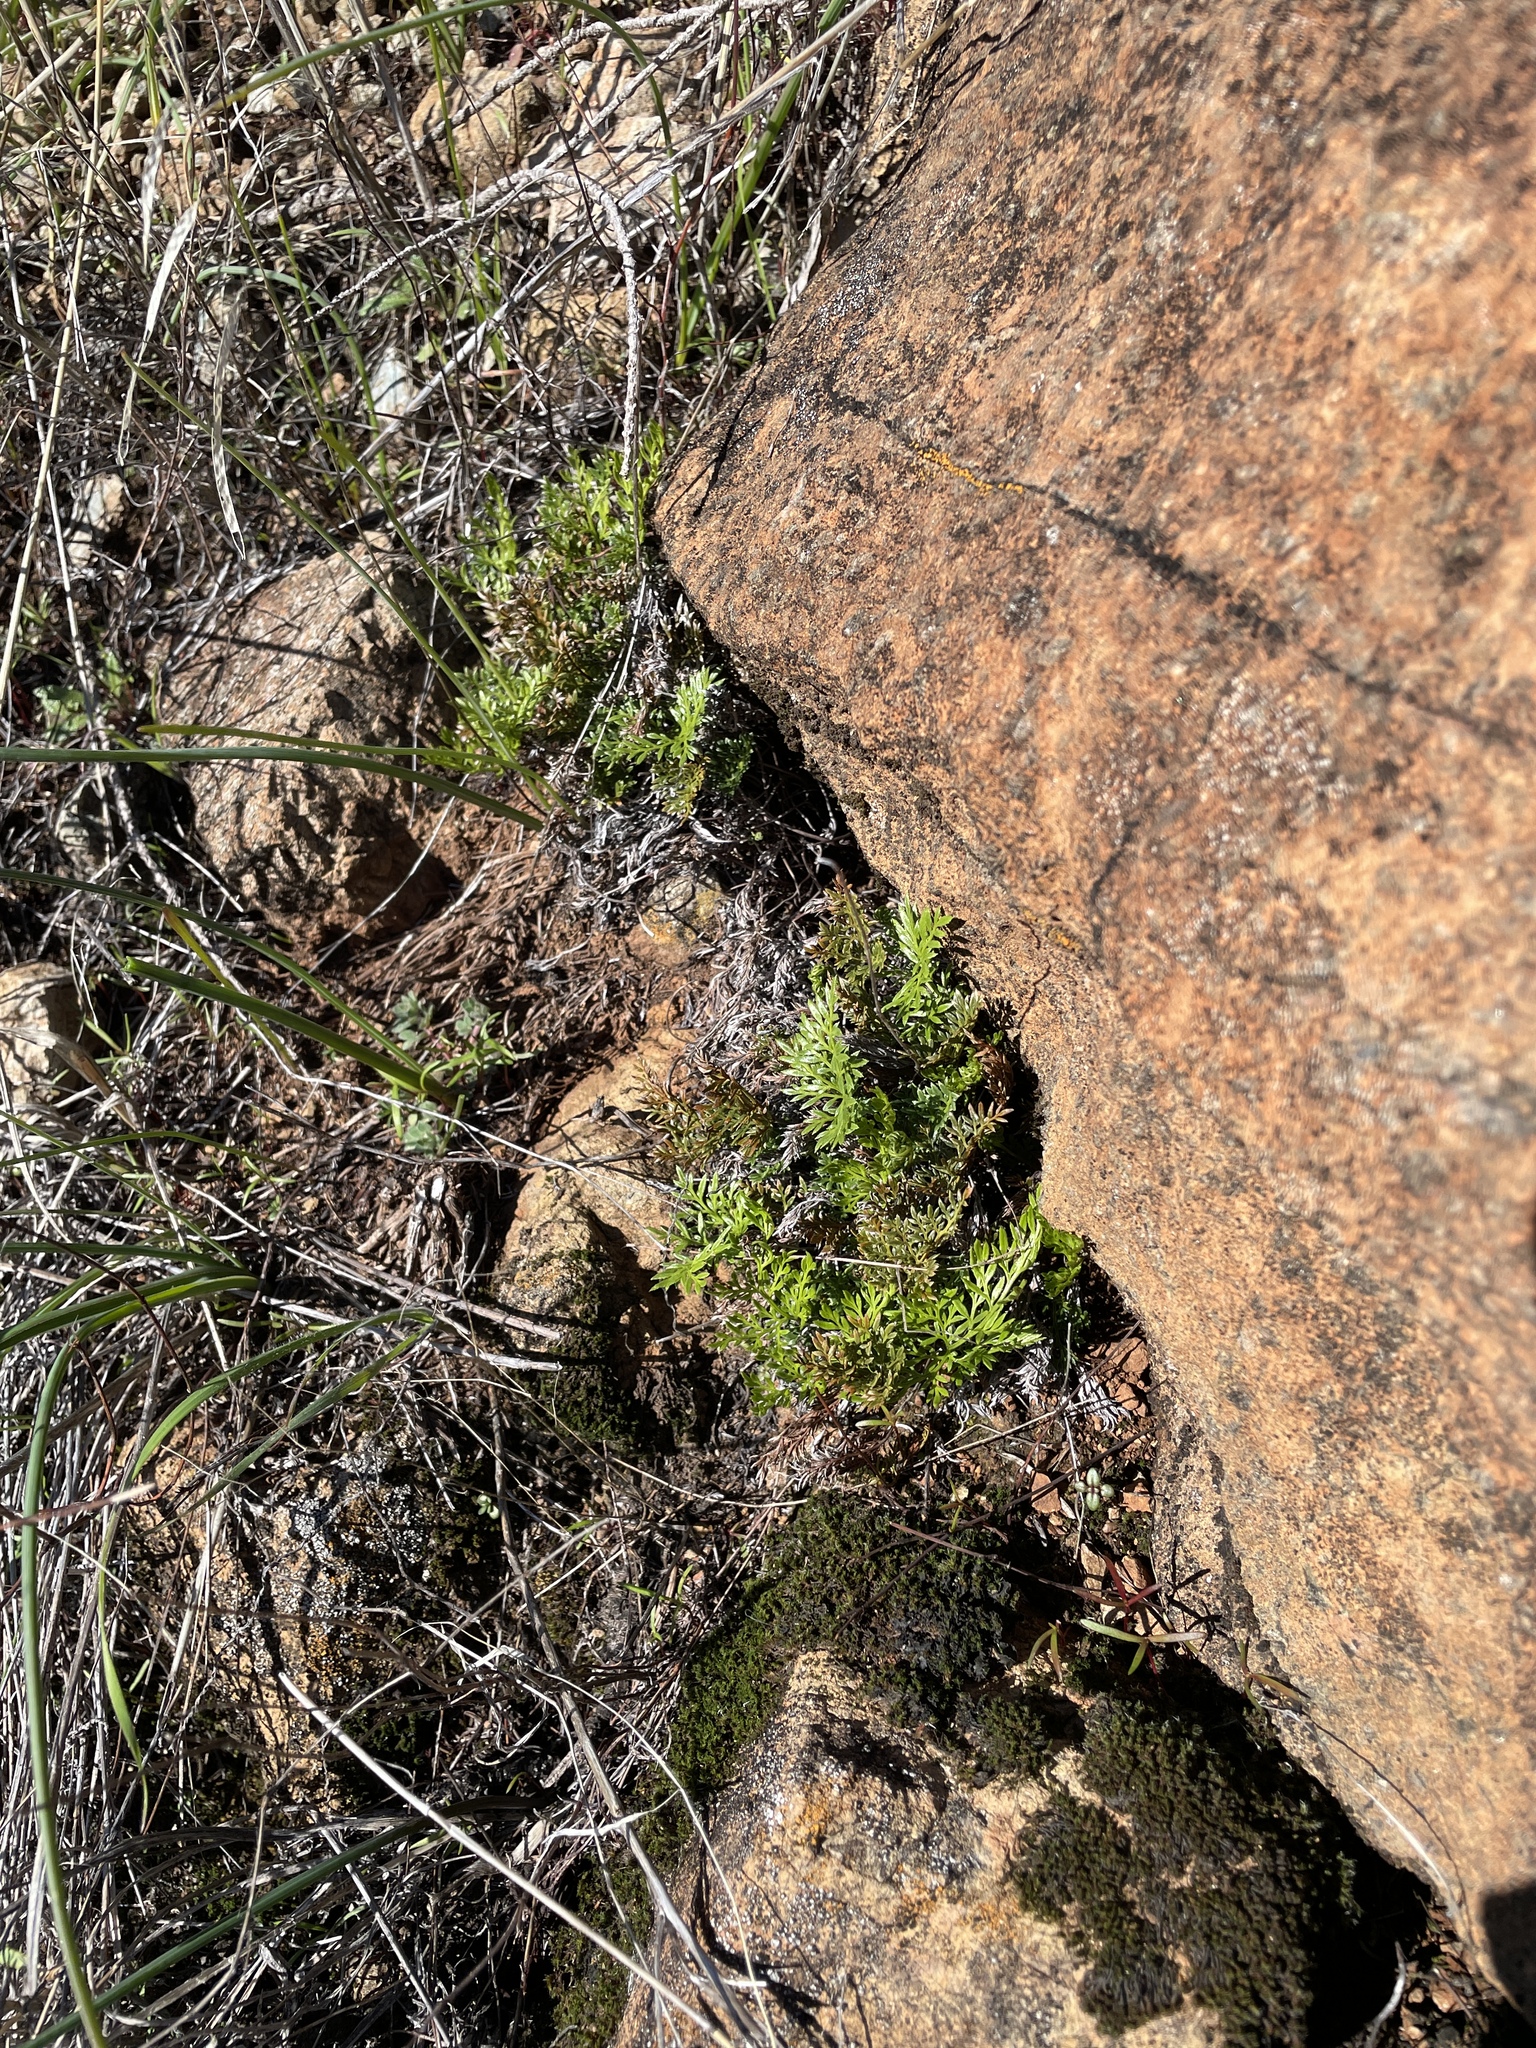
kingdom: Plantae
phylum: Tracheophyta
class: Polypodiopsida
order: Polypodiales
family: Pteridaceae
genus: Aspidotis
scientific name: Aspidotis densa
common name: Indian's dream
